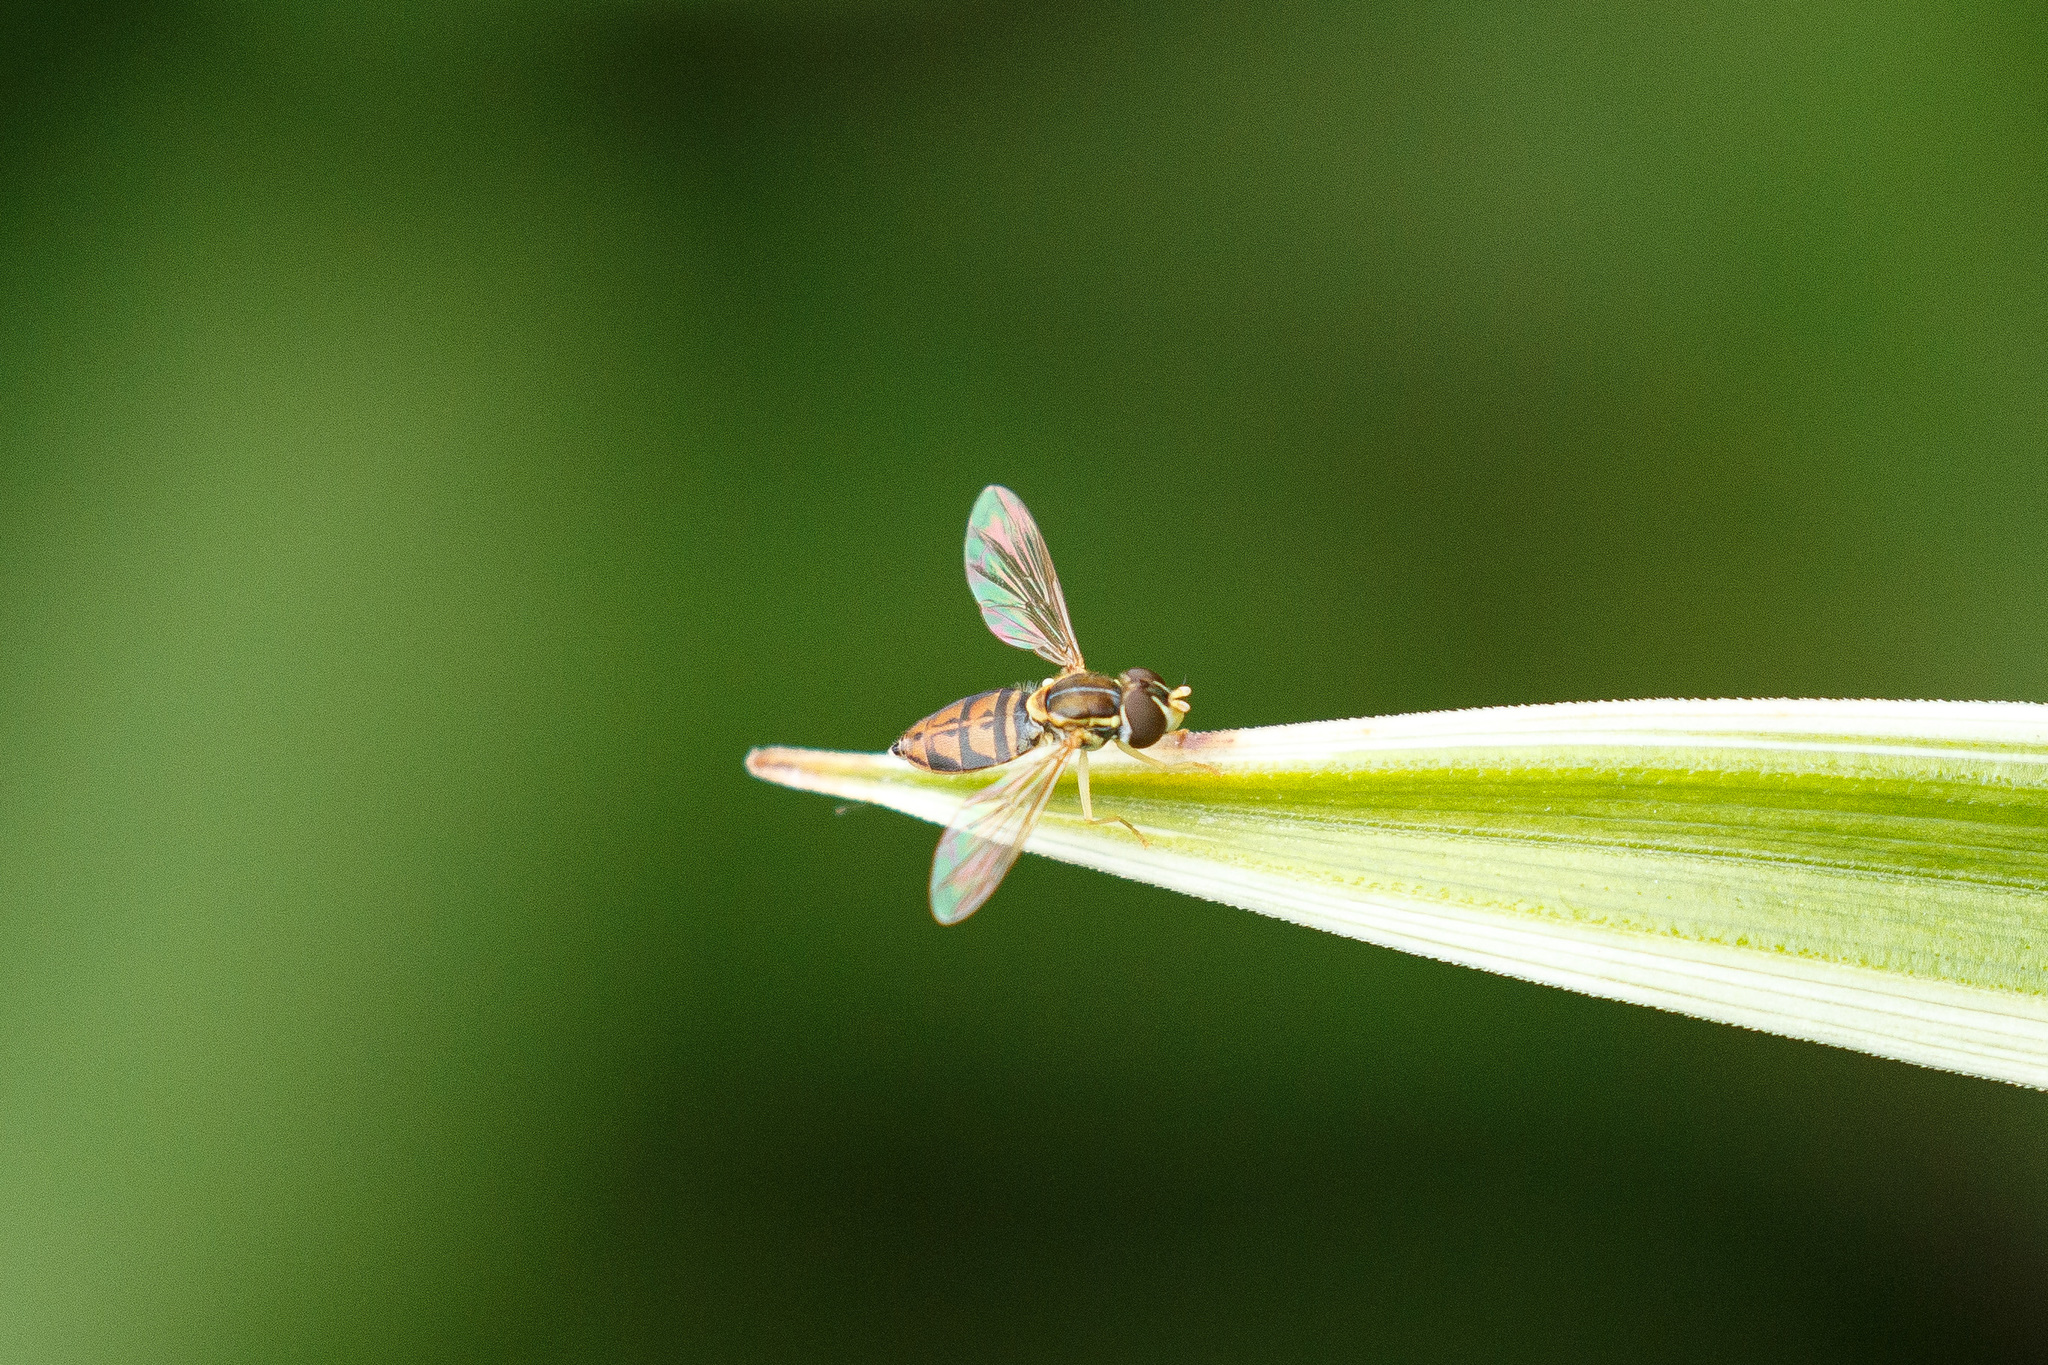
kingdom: Animalia
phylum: Arthropoda
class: Insecta
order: Diptera
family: Syrphidae
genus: Toxomerus
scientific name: Toxomerus marginatus
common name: Syrphid fly
